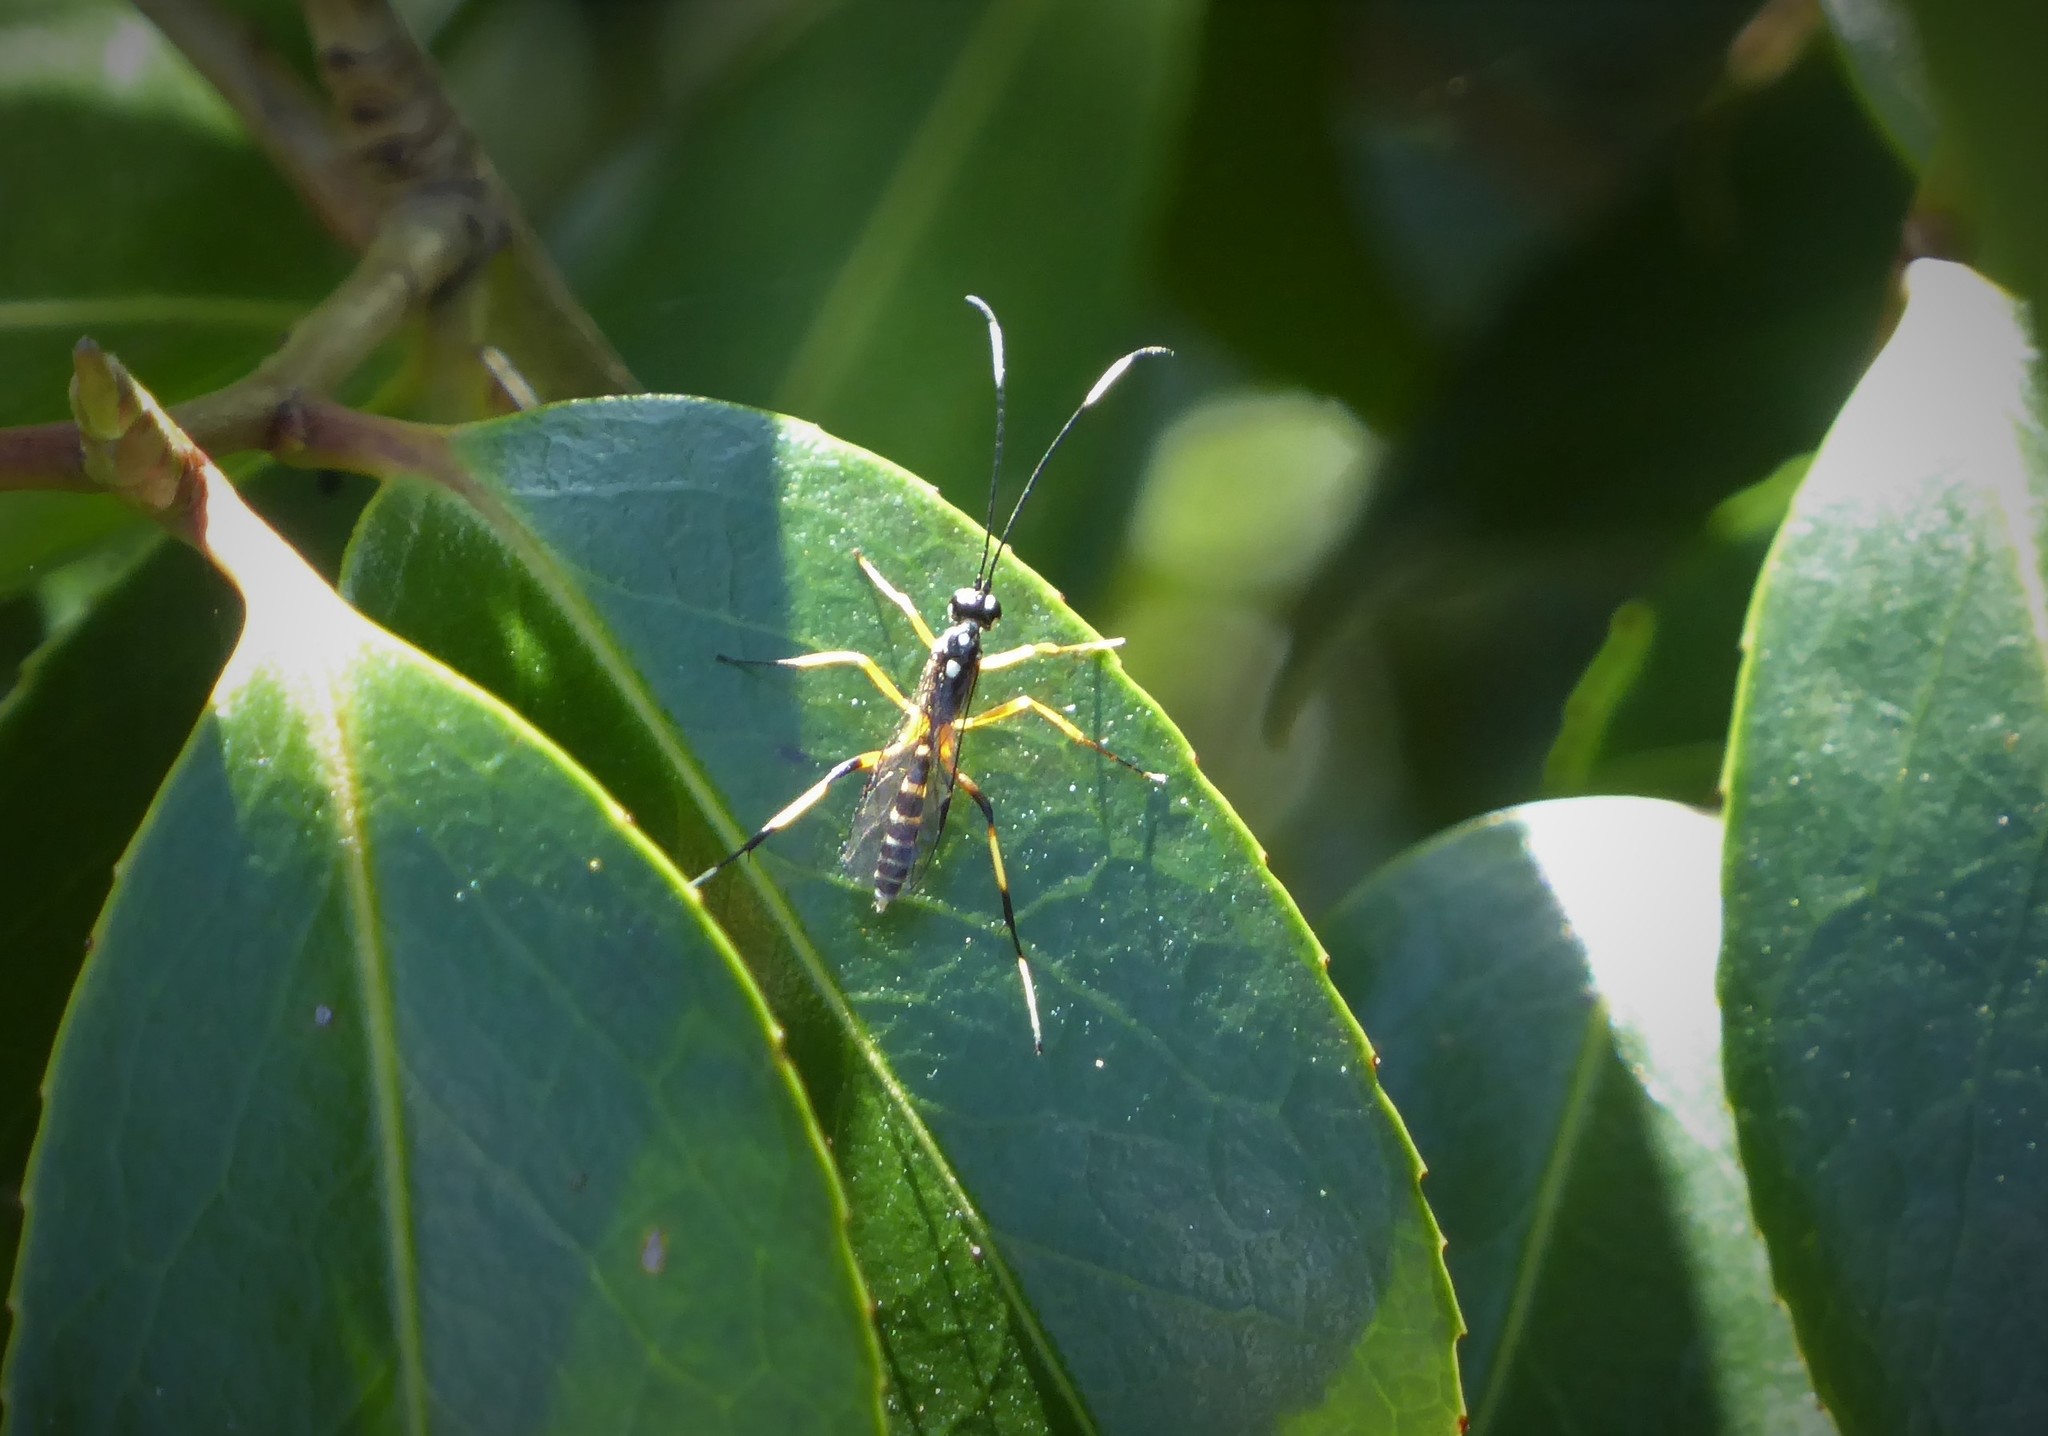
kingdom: Animalia
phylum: Arthropoda
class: Insecta
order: Hymenoptera
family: Ichneumonidae
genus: Xanthocryptus
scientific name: Xanthocryptus novozealandicus
